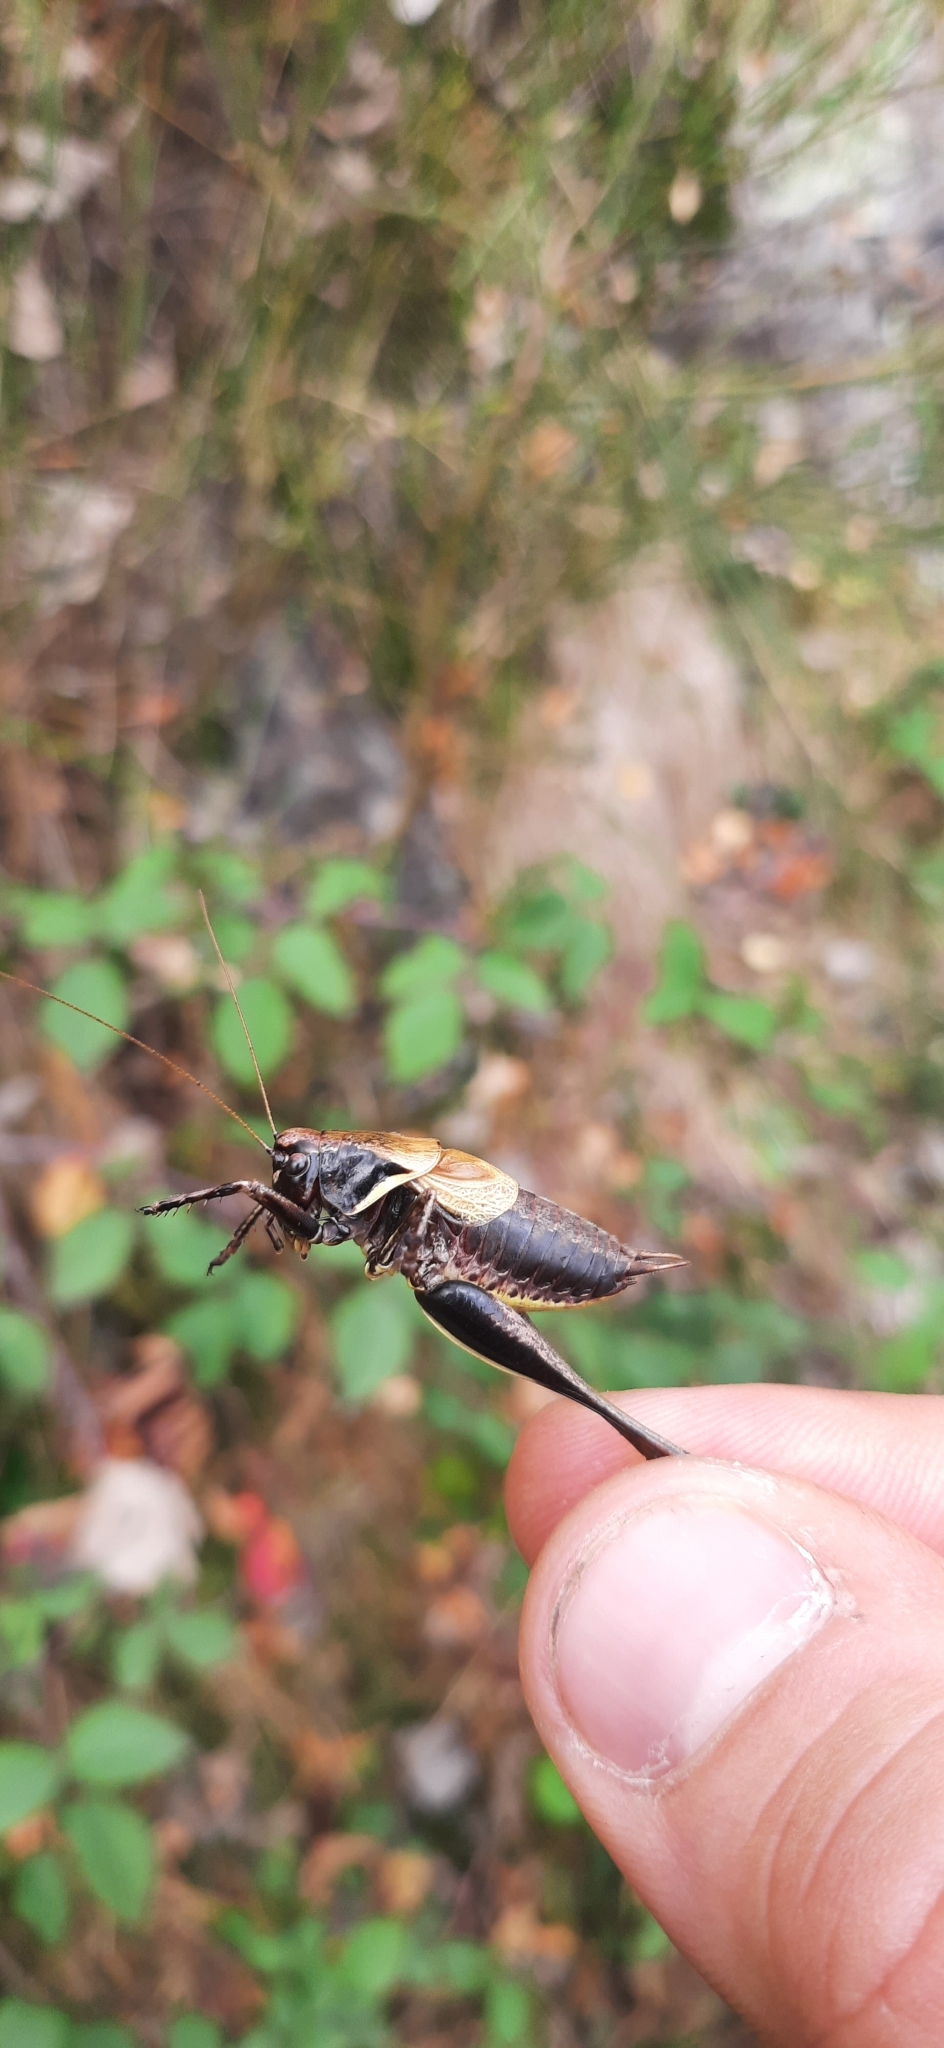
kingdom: Animalia
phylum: Arthropoda
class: Insecta
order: Orthoptera
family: Tettigoniidae
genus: Pholidoptera
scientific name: Pholidoptera aptera
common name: Alpine dark bush-cricket
